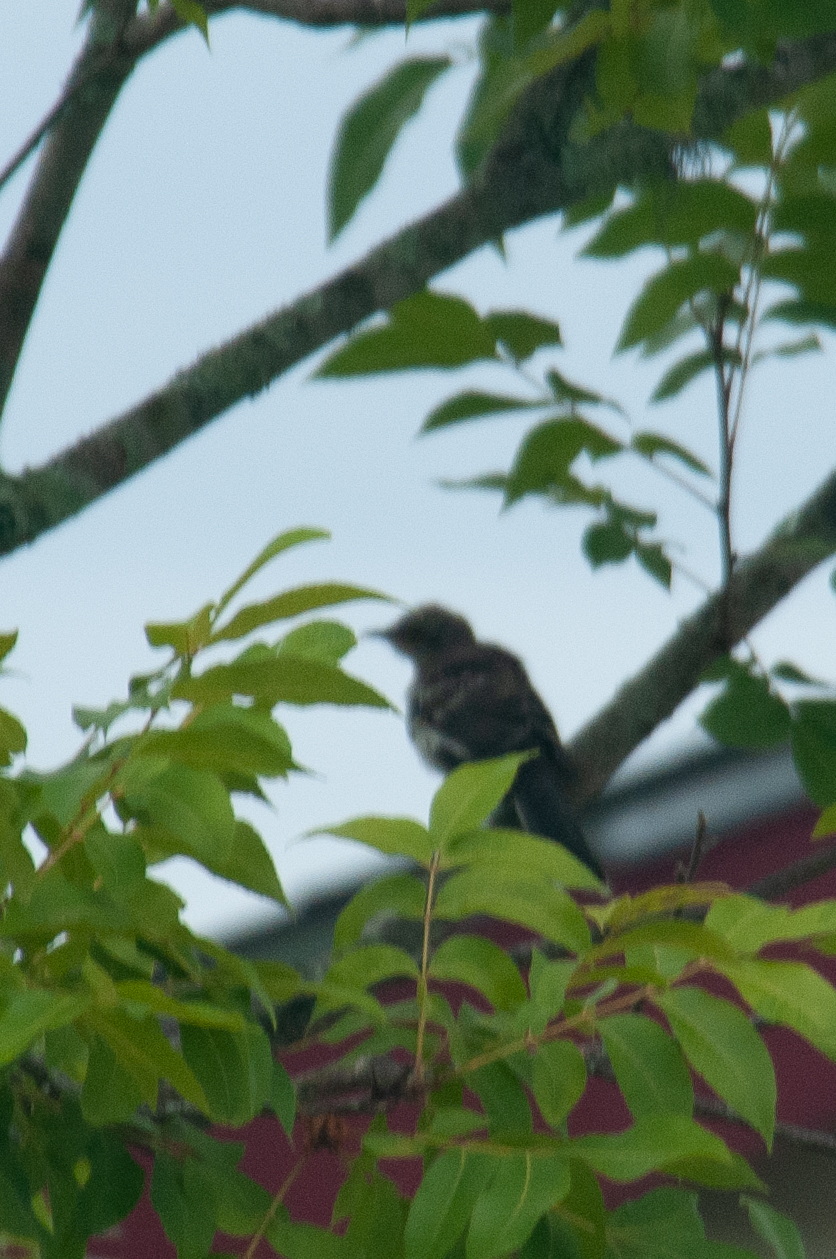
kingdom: Animalia
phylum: Chordata
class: Aves
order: Passeriformes
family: Mimidae
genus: Mimus
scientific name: Mimus polyglottos
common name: Northern mockingbird
